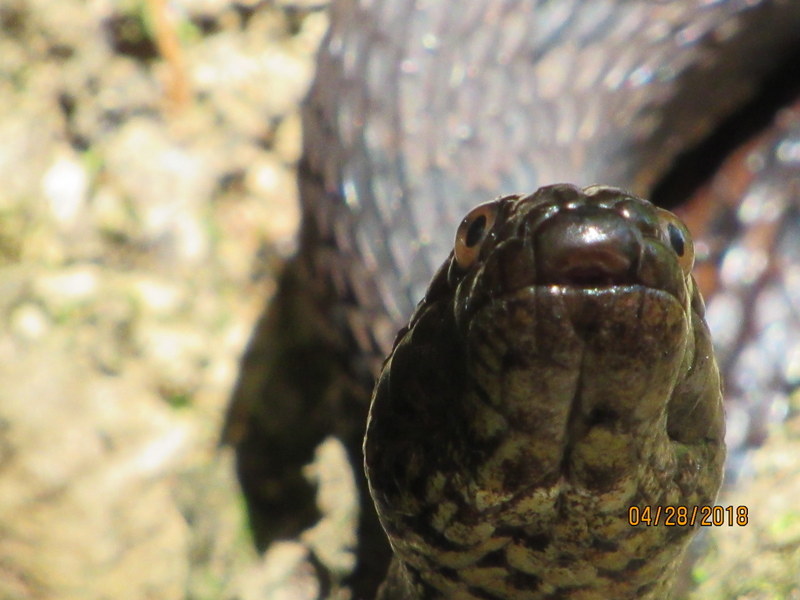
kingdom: Animalia
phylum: Chordata
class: Squamata
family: Colubridae
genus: Nerodia
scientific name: Nerodia taxispilota
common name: Brown water snake
